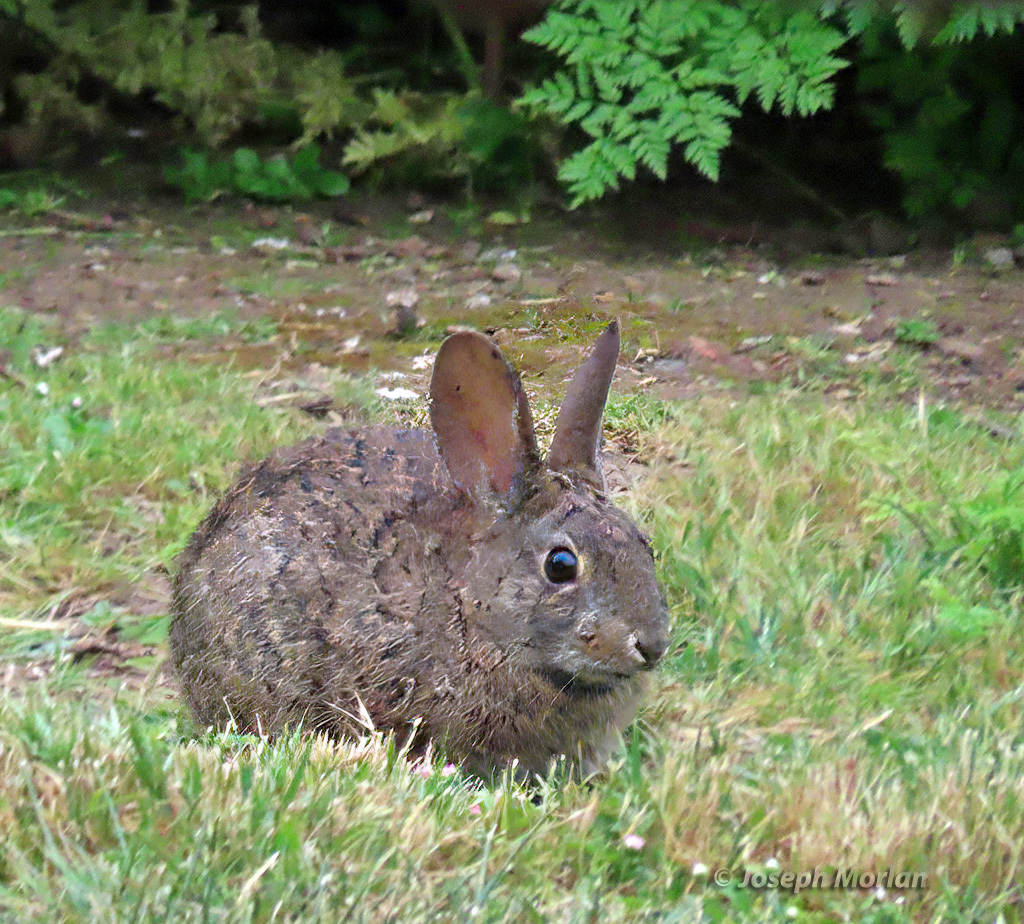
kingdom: Animalia
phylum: Chordata
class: Mammalia
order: Lagomorpha
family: Leporidae
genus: Sylvilagus
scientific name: Sylvilagus bachmani
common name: Brush rabbit
